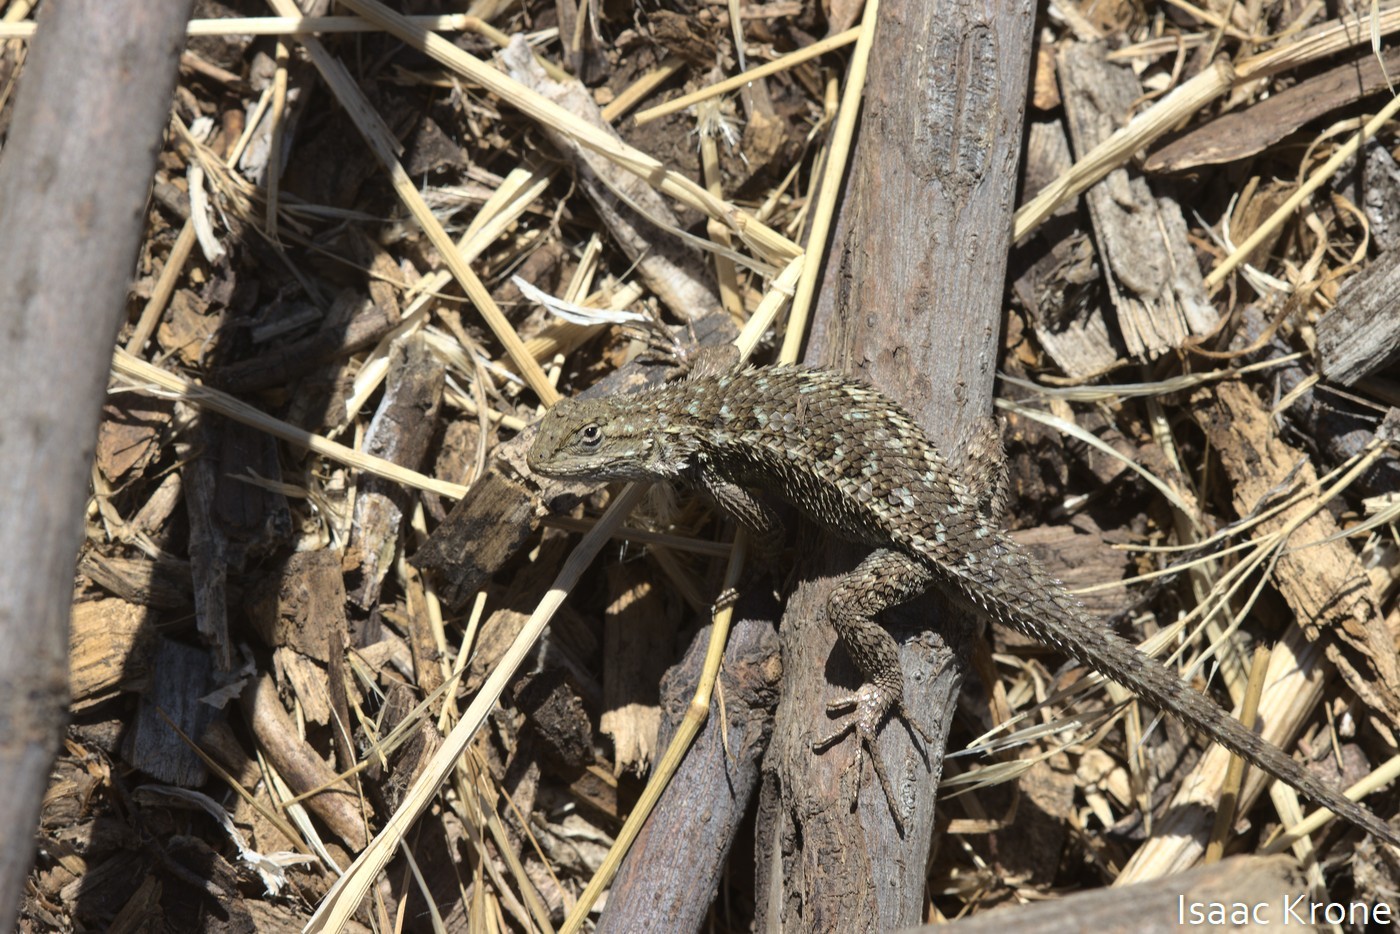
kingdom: Animalia
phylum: Chordata
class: Squamata
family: Phrynosomatidae
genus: Sceloporus
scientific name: Sceloporus occidentalis
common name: Western fence lizard
